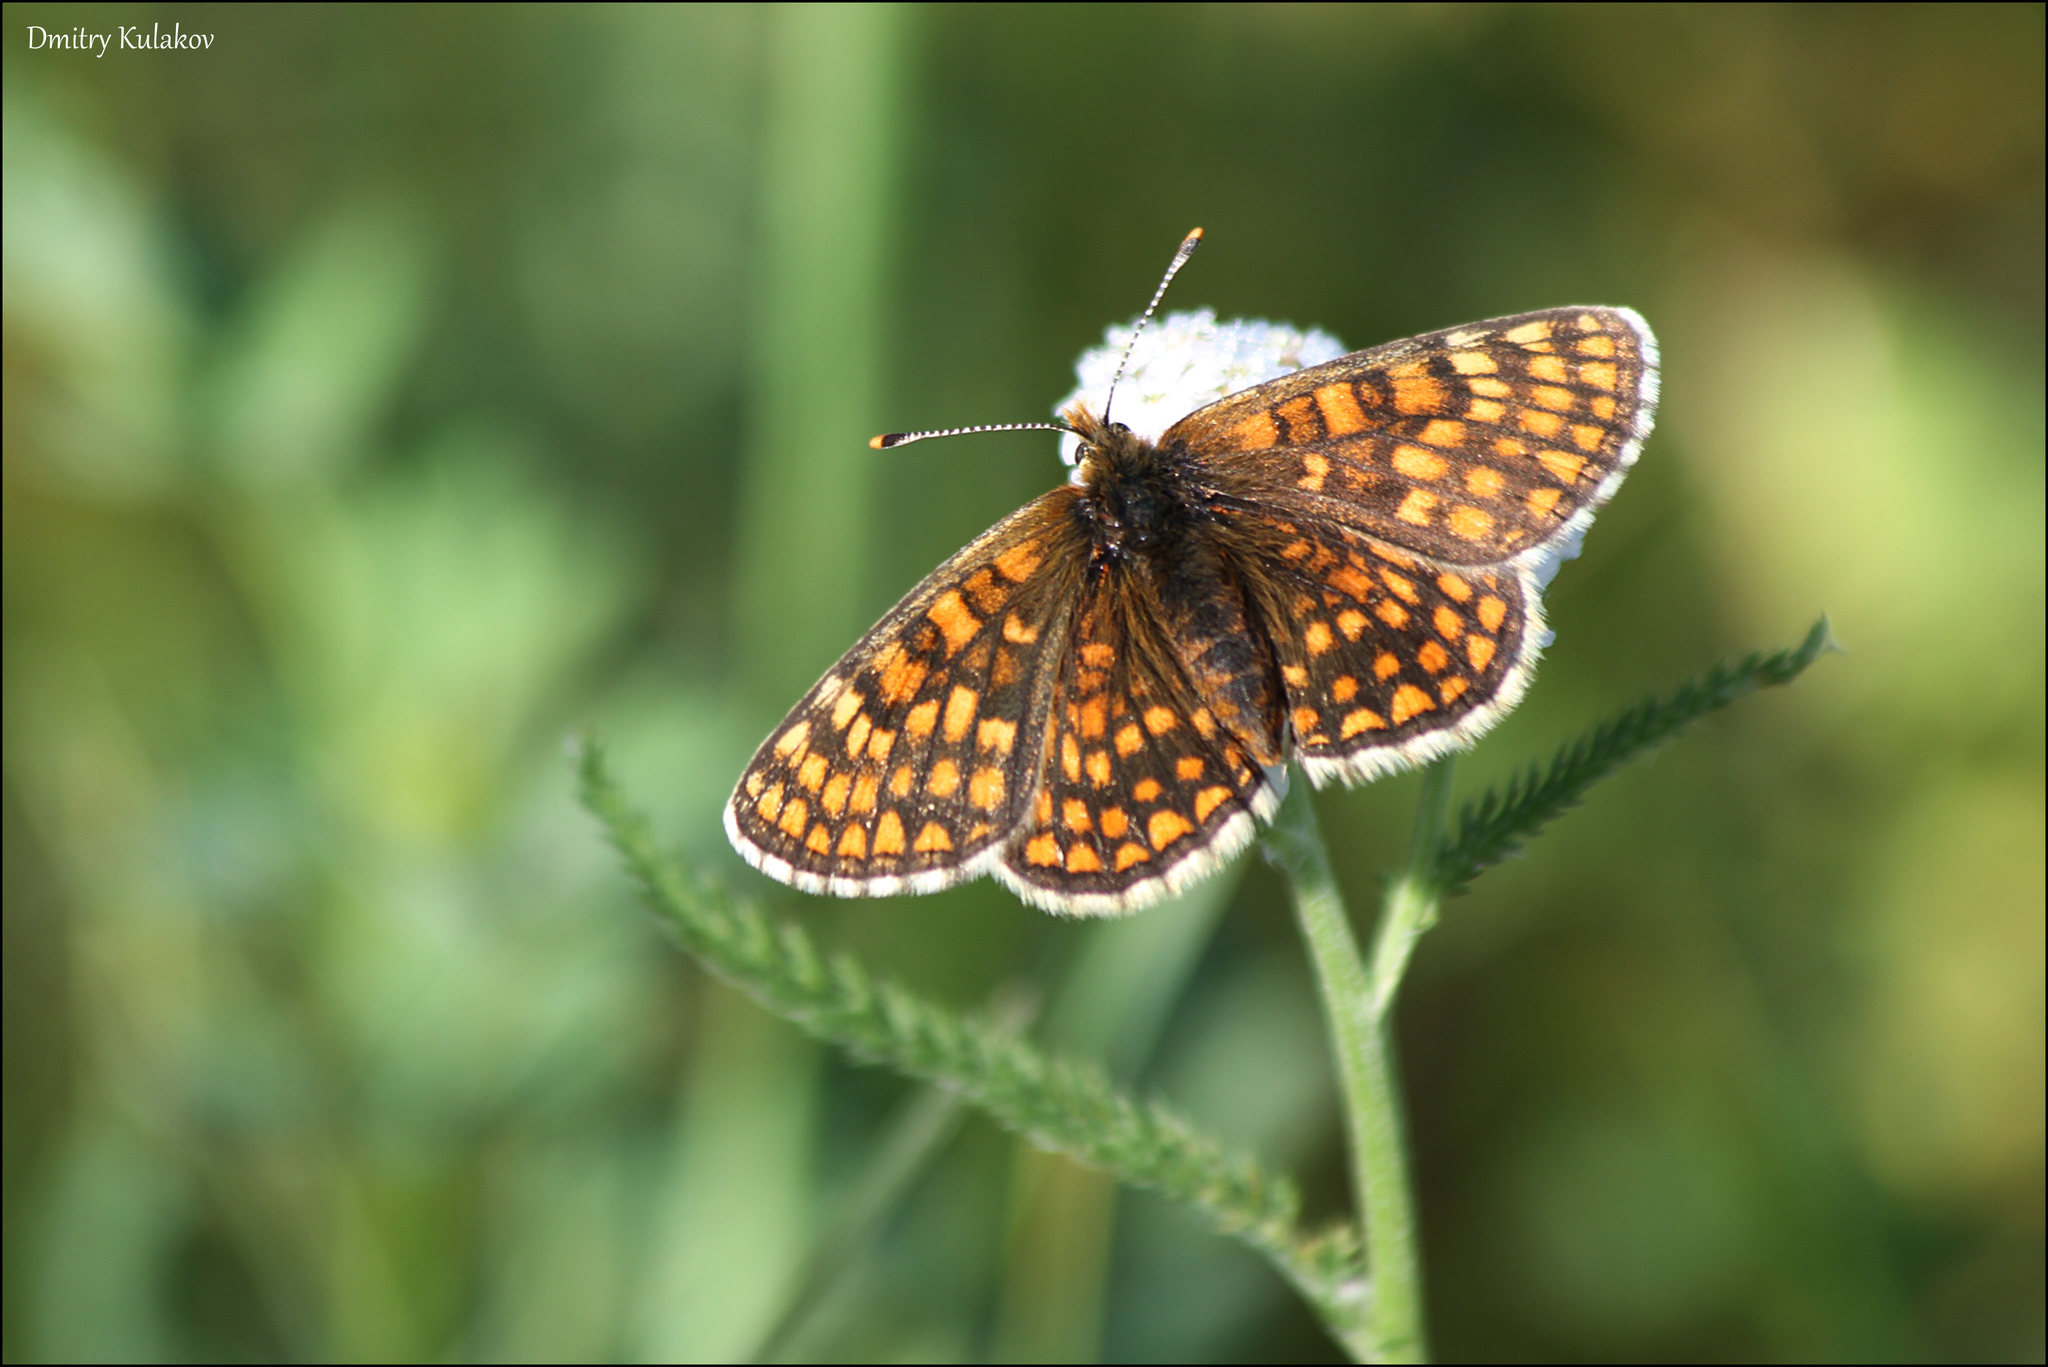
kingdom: Animalia
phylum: Arthropoda
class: Insecta
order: Lepidoptera
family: Nymphalidae
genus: Melitaea
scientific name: Melitaea athalia
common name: Heath fritillary
